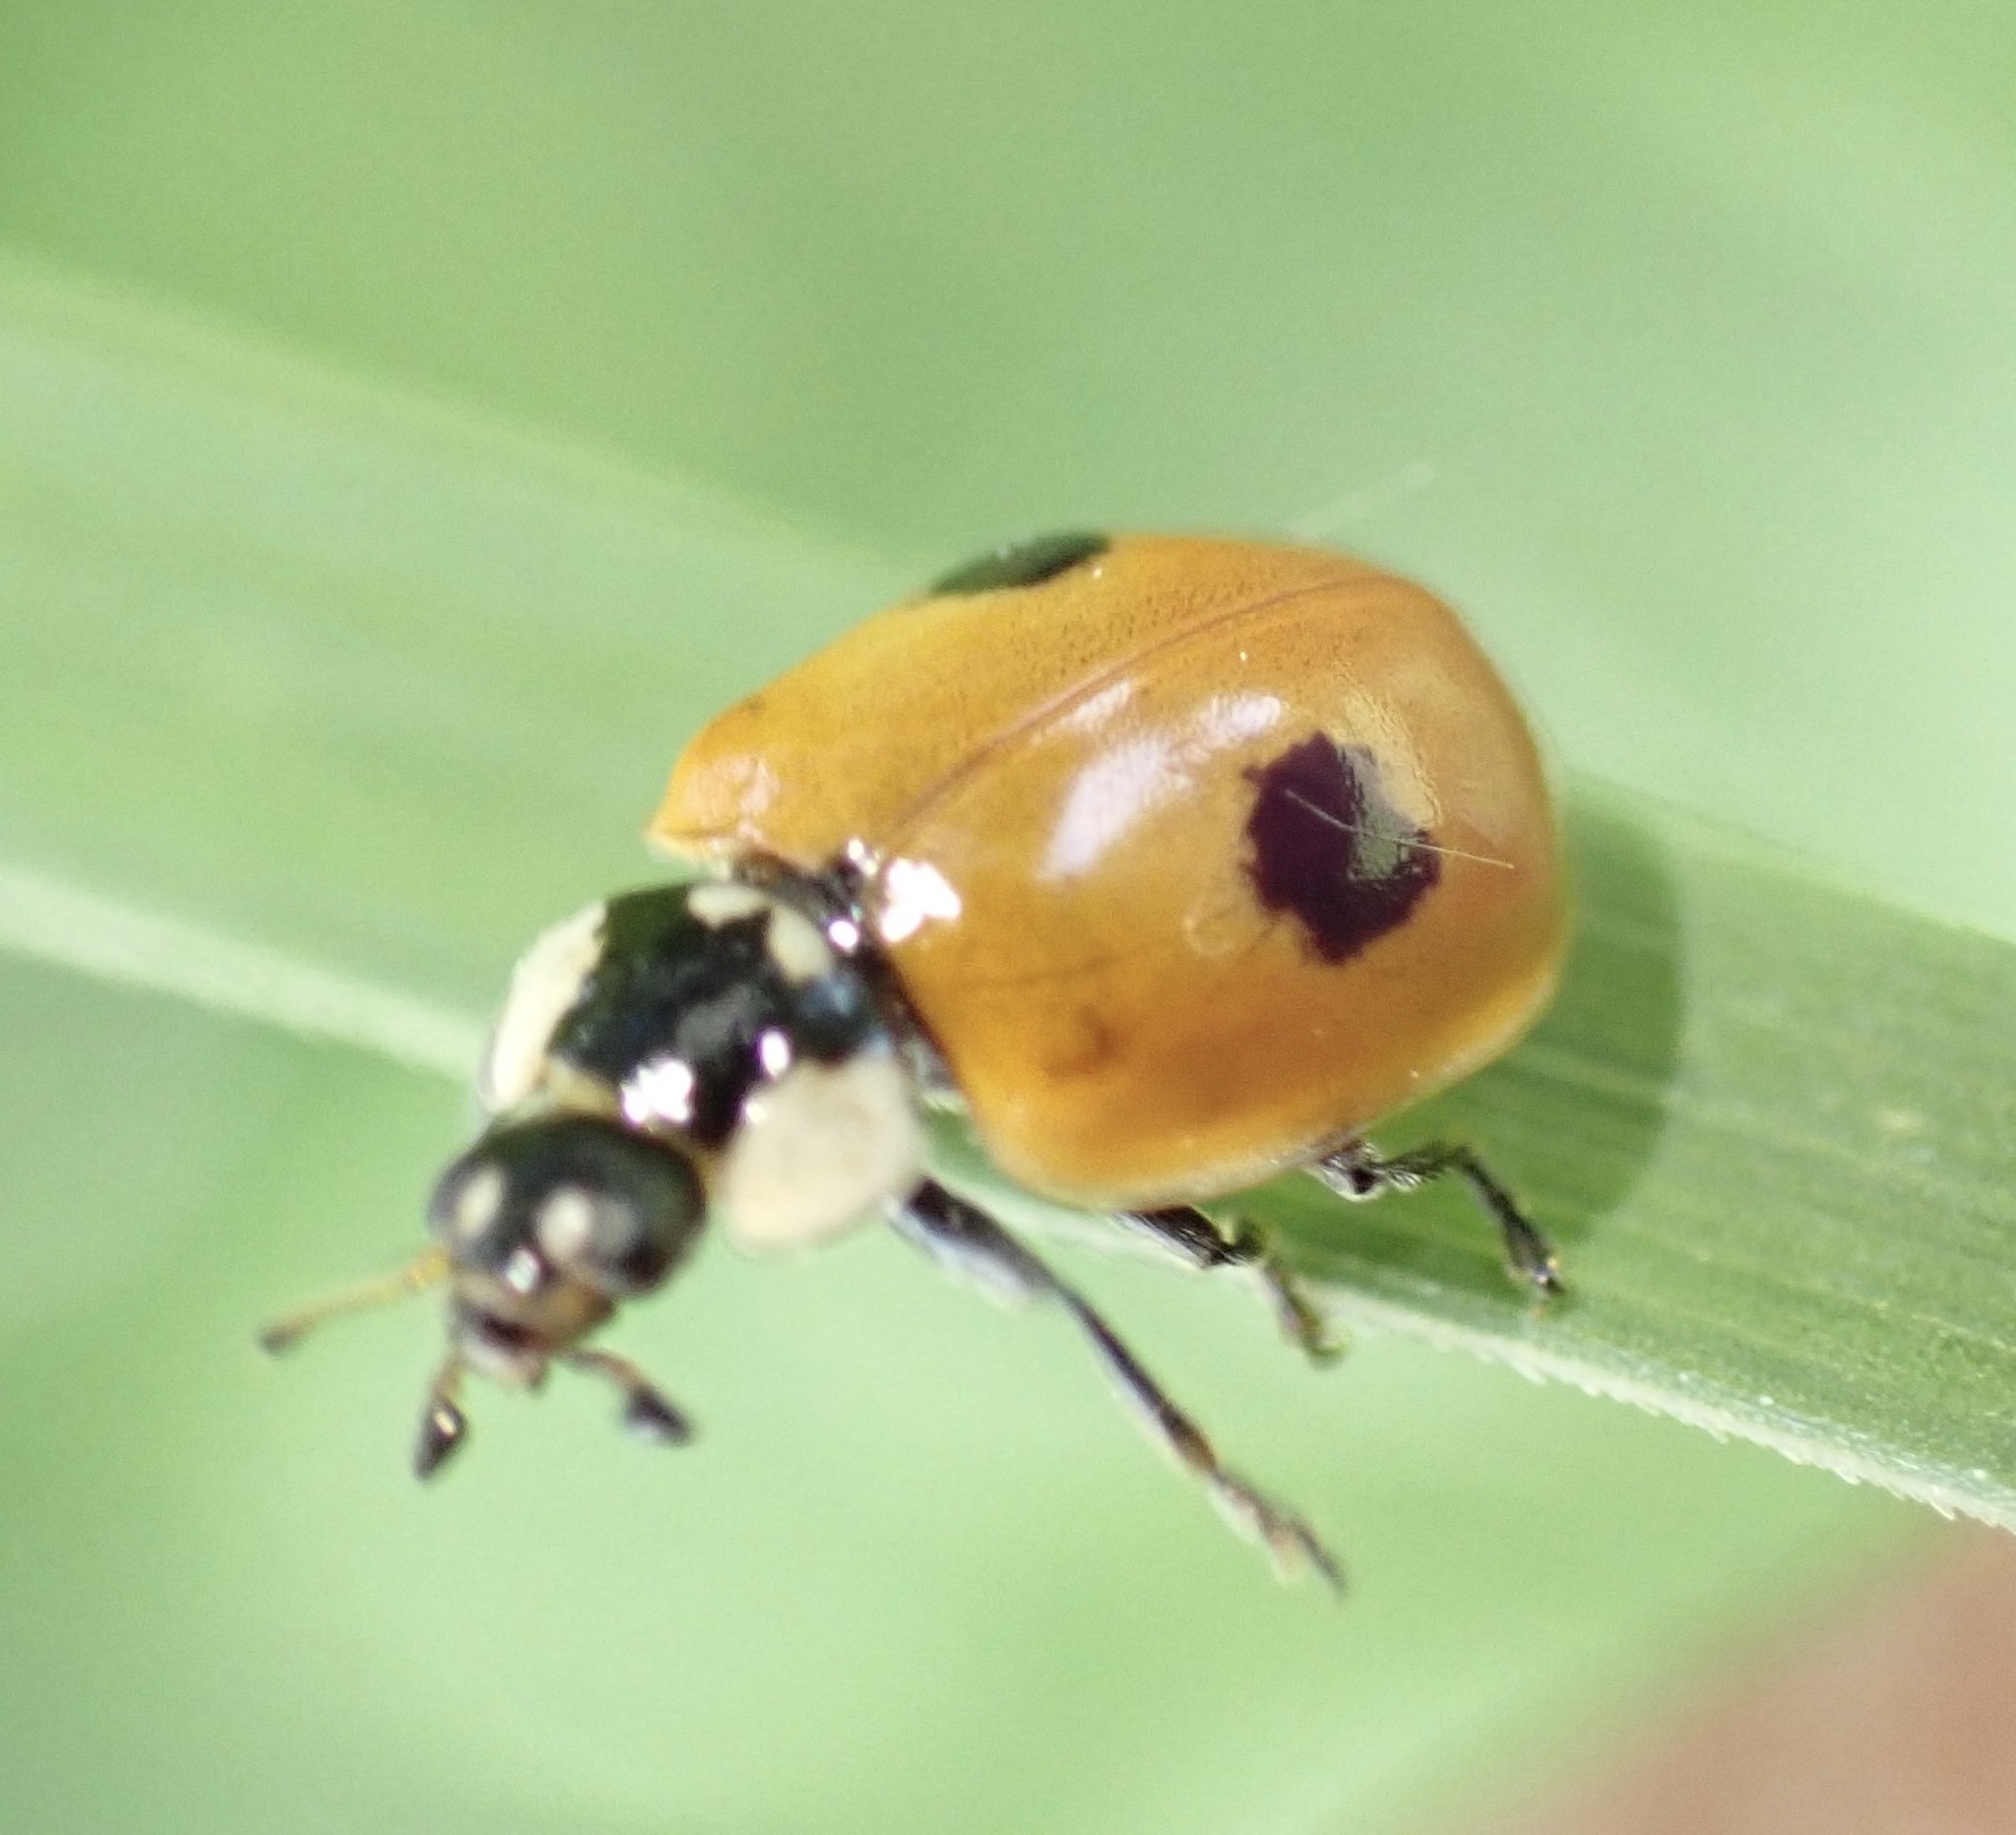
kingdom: Animalia
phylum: Arthropoda
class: Insecta
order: Coleoptera
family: Coccinellidae
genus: Adalia
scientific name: Adalia bipunctata
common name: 2-spot ladybird
